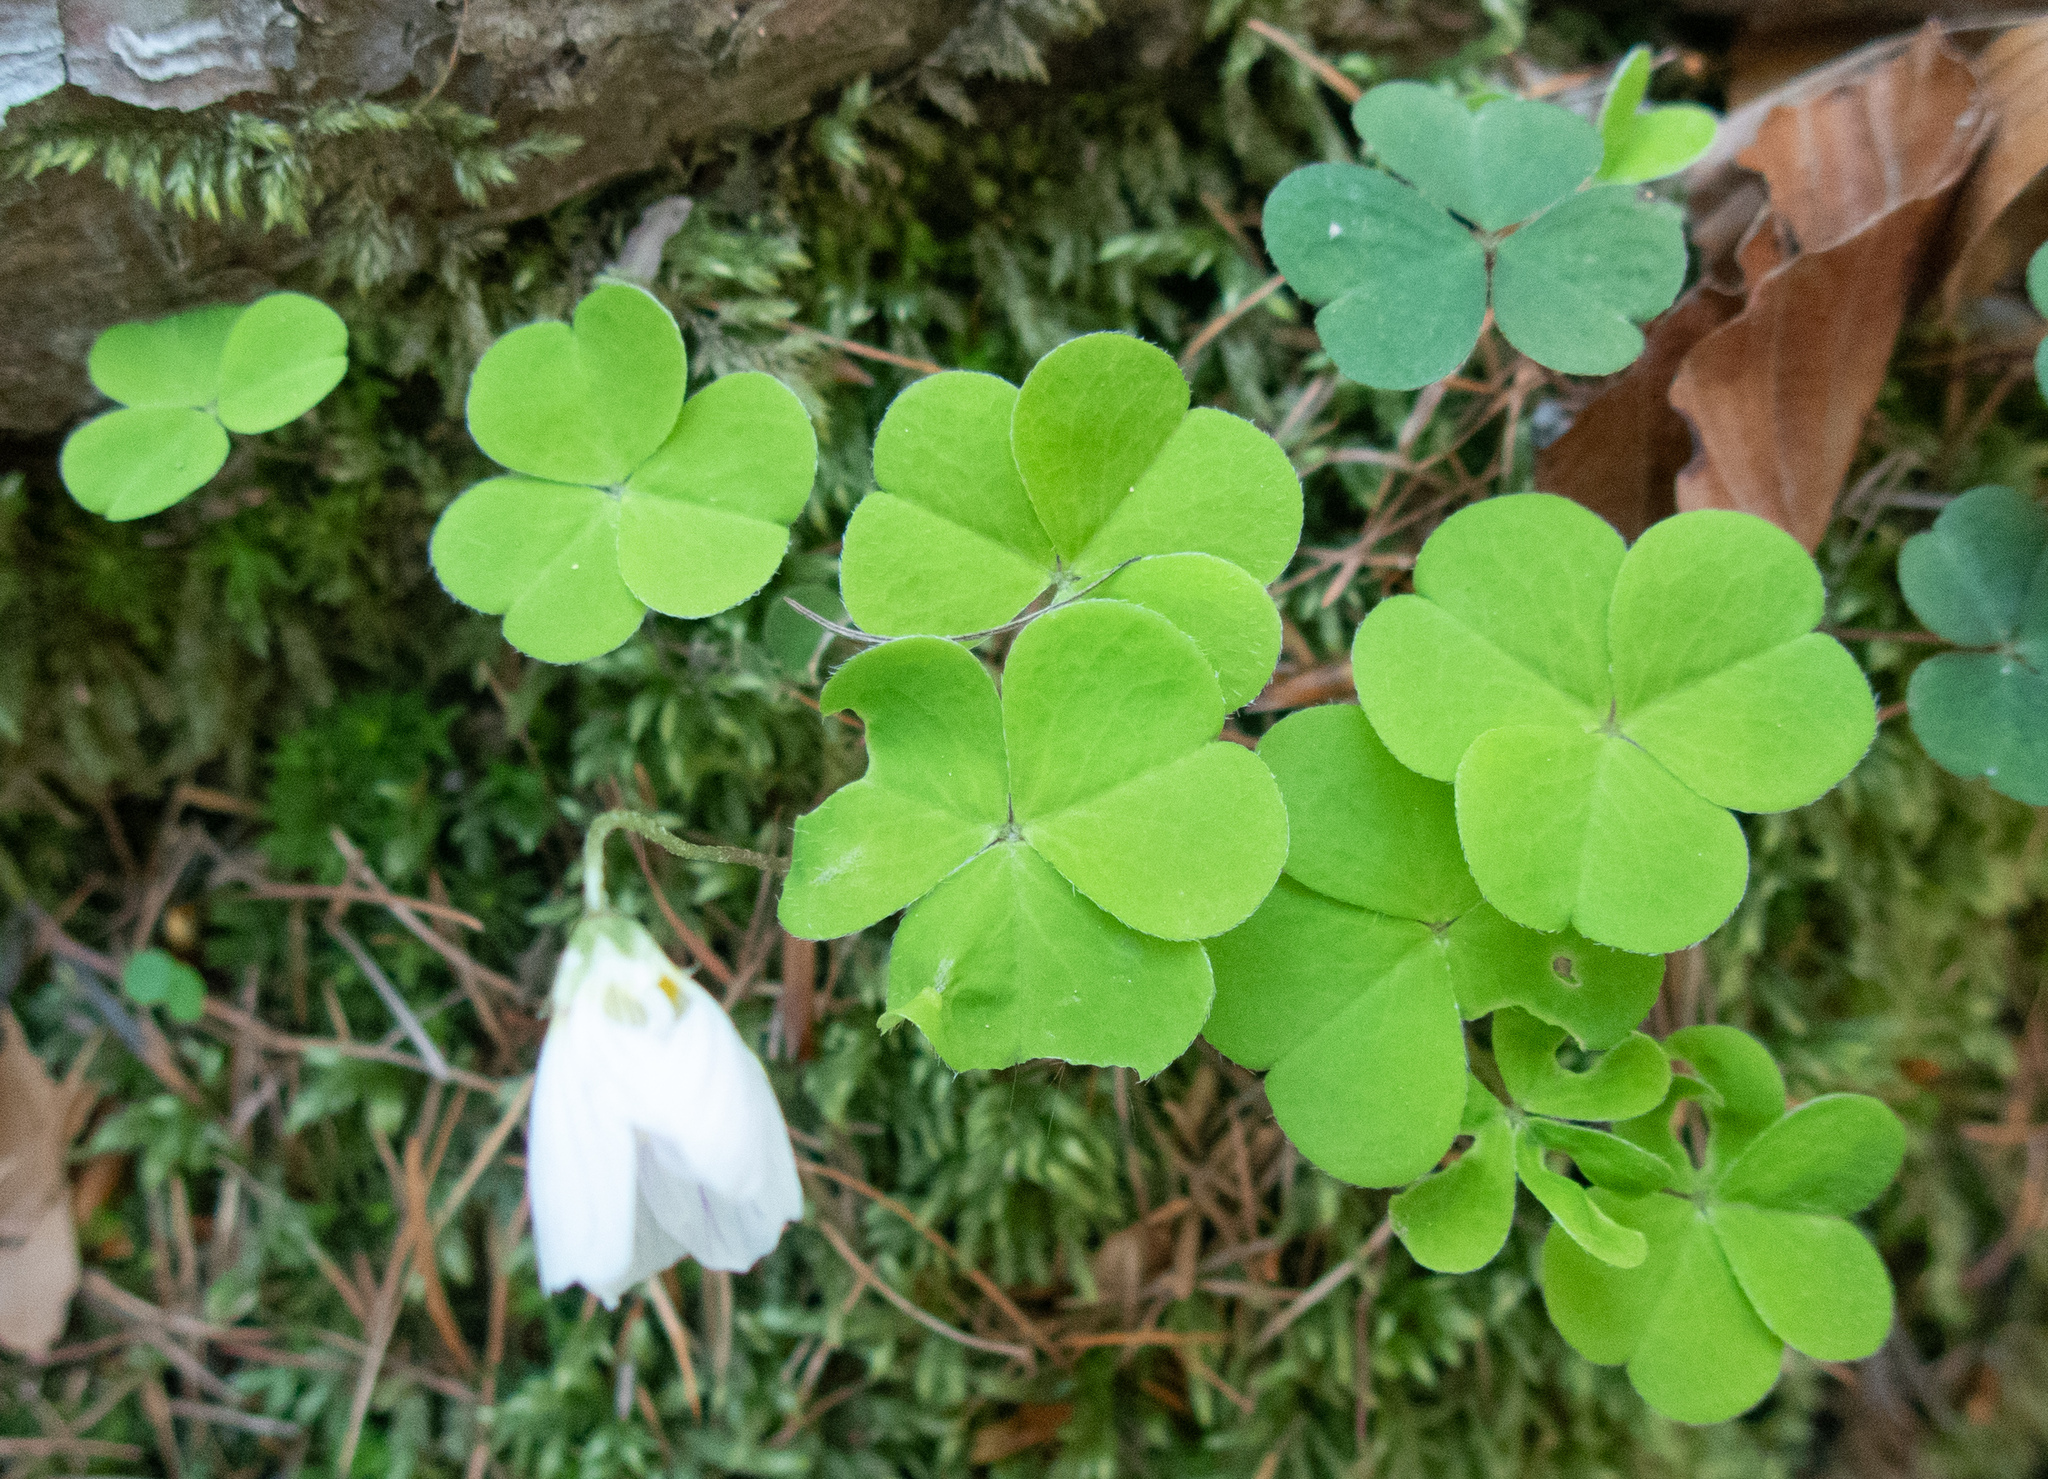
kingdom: Plantae
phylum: Tracheophyta
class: Magnoliopsida
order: Oxalidales
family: Oxalidaceae
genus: Oxalis
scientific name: Oxalis acetosella
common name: Wood-sorrel
